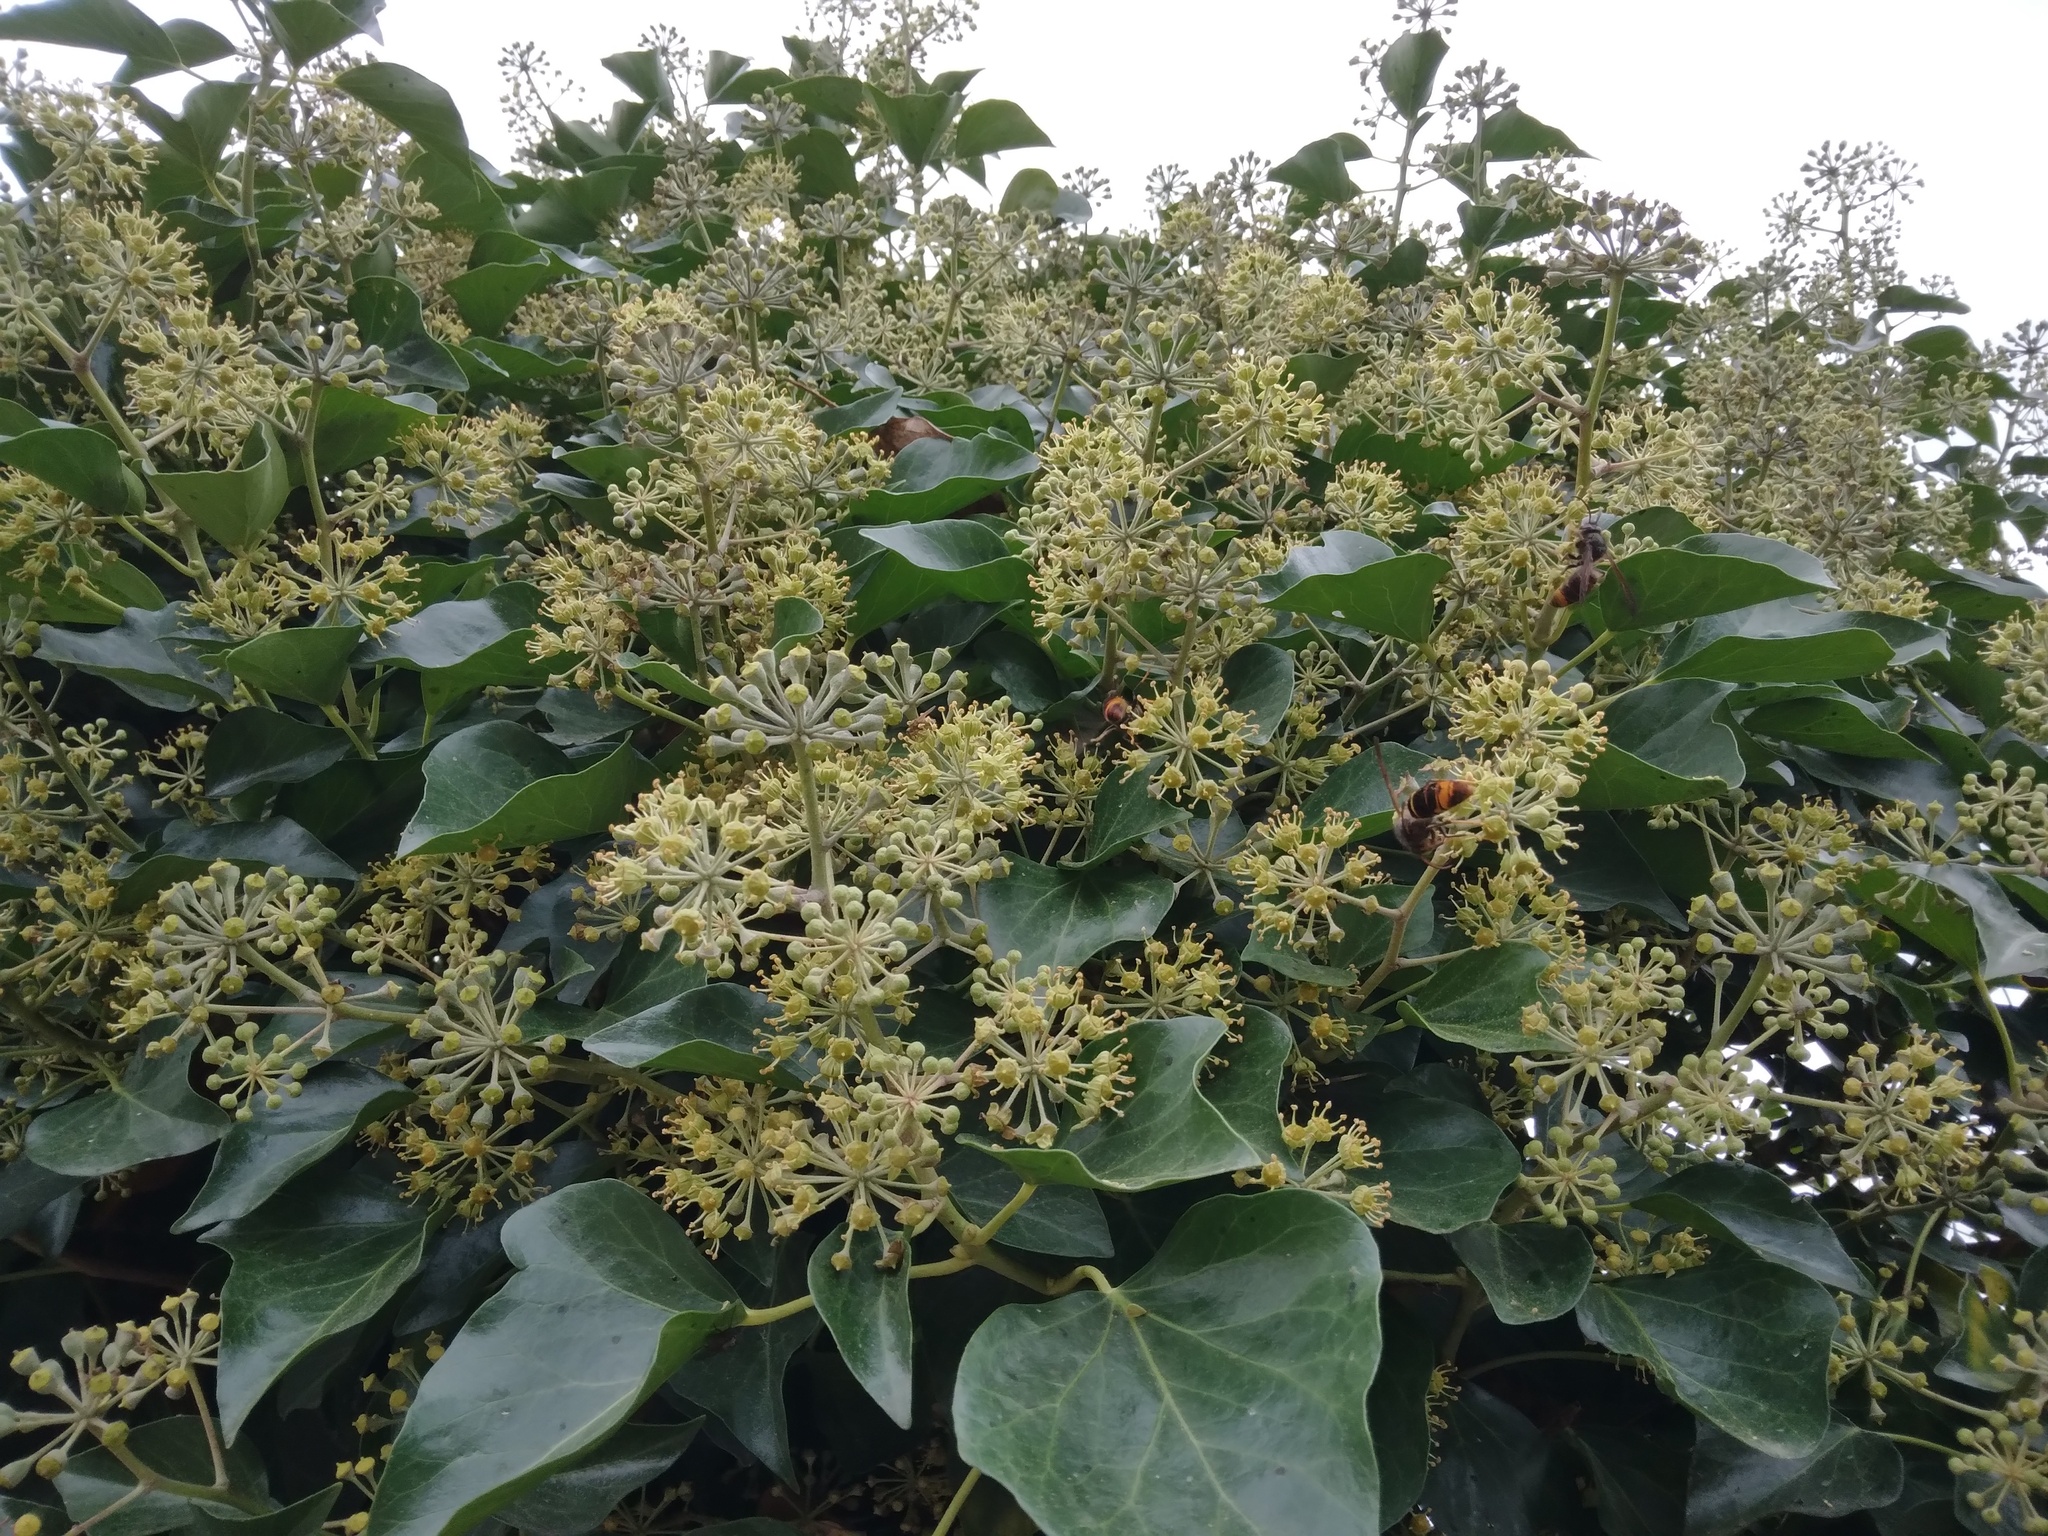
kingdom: Animalia
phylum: Arthropoda
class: Insecta
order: Hymenoptera
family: Vespidae
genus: Vespa
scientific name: Vespa velutina
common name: Asian hornet
